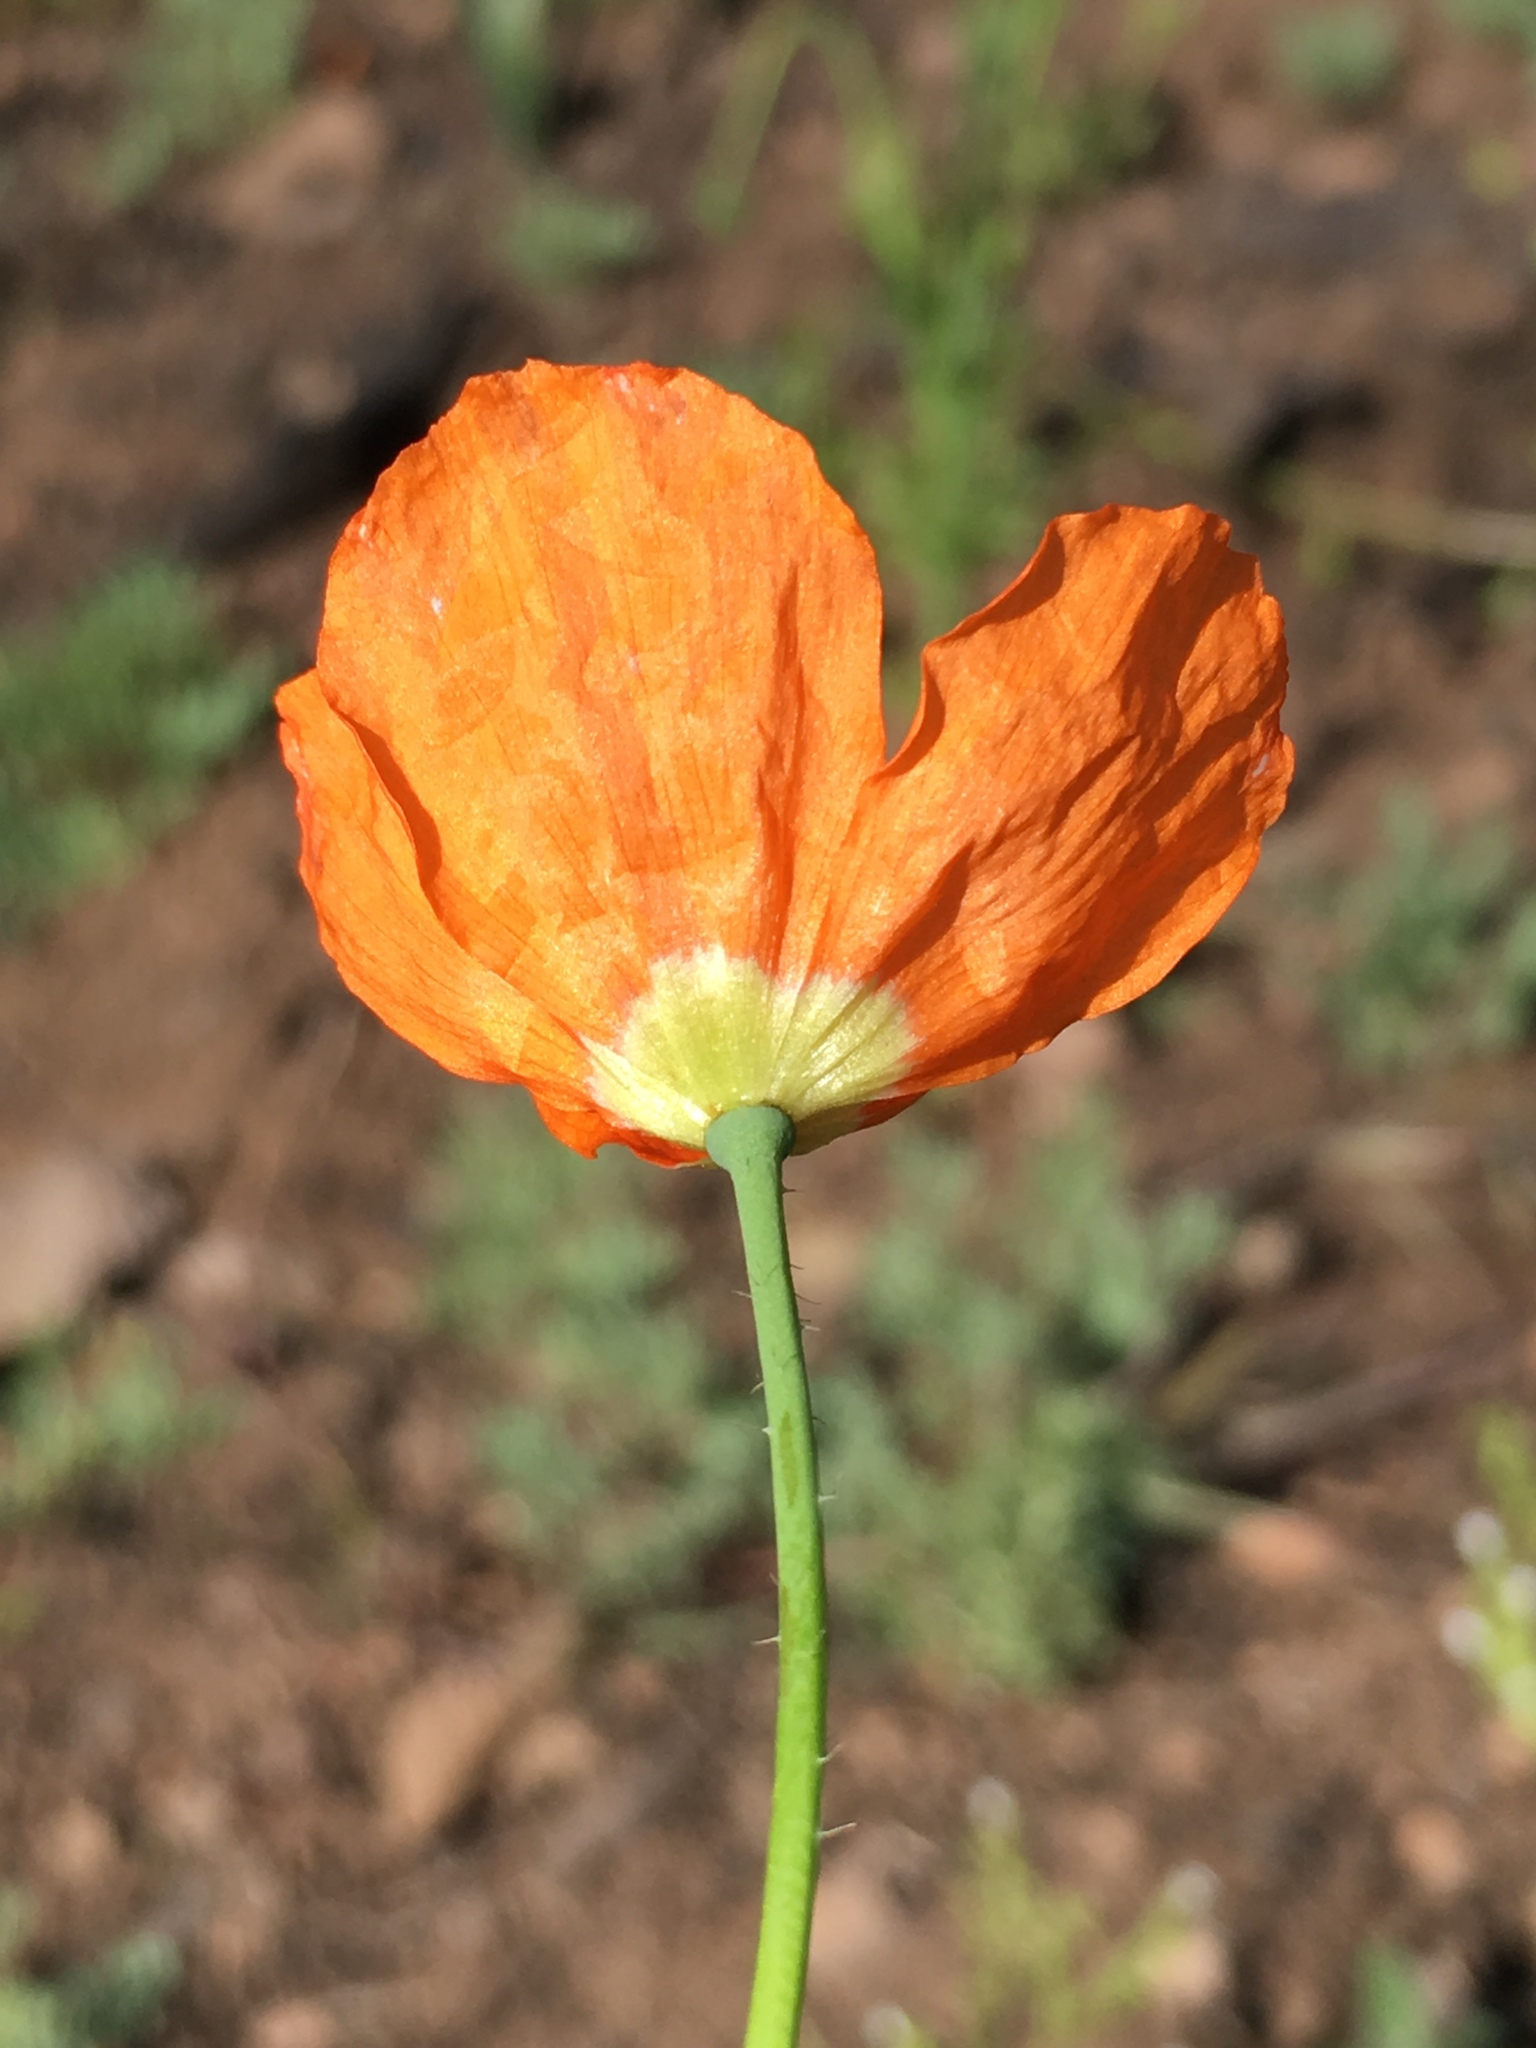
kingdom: Plantae
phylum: Tracheophyta
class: Magnoliopsida
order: Ranunculales
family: Papaveraceae
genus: Papaver
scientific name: Papaver californicum
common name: Fire poppy
